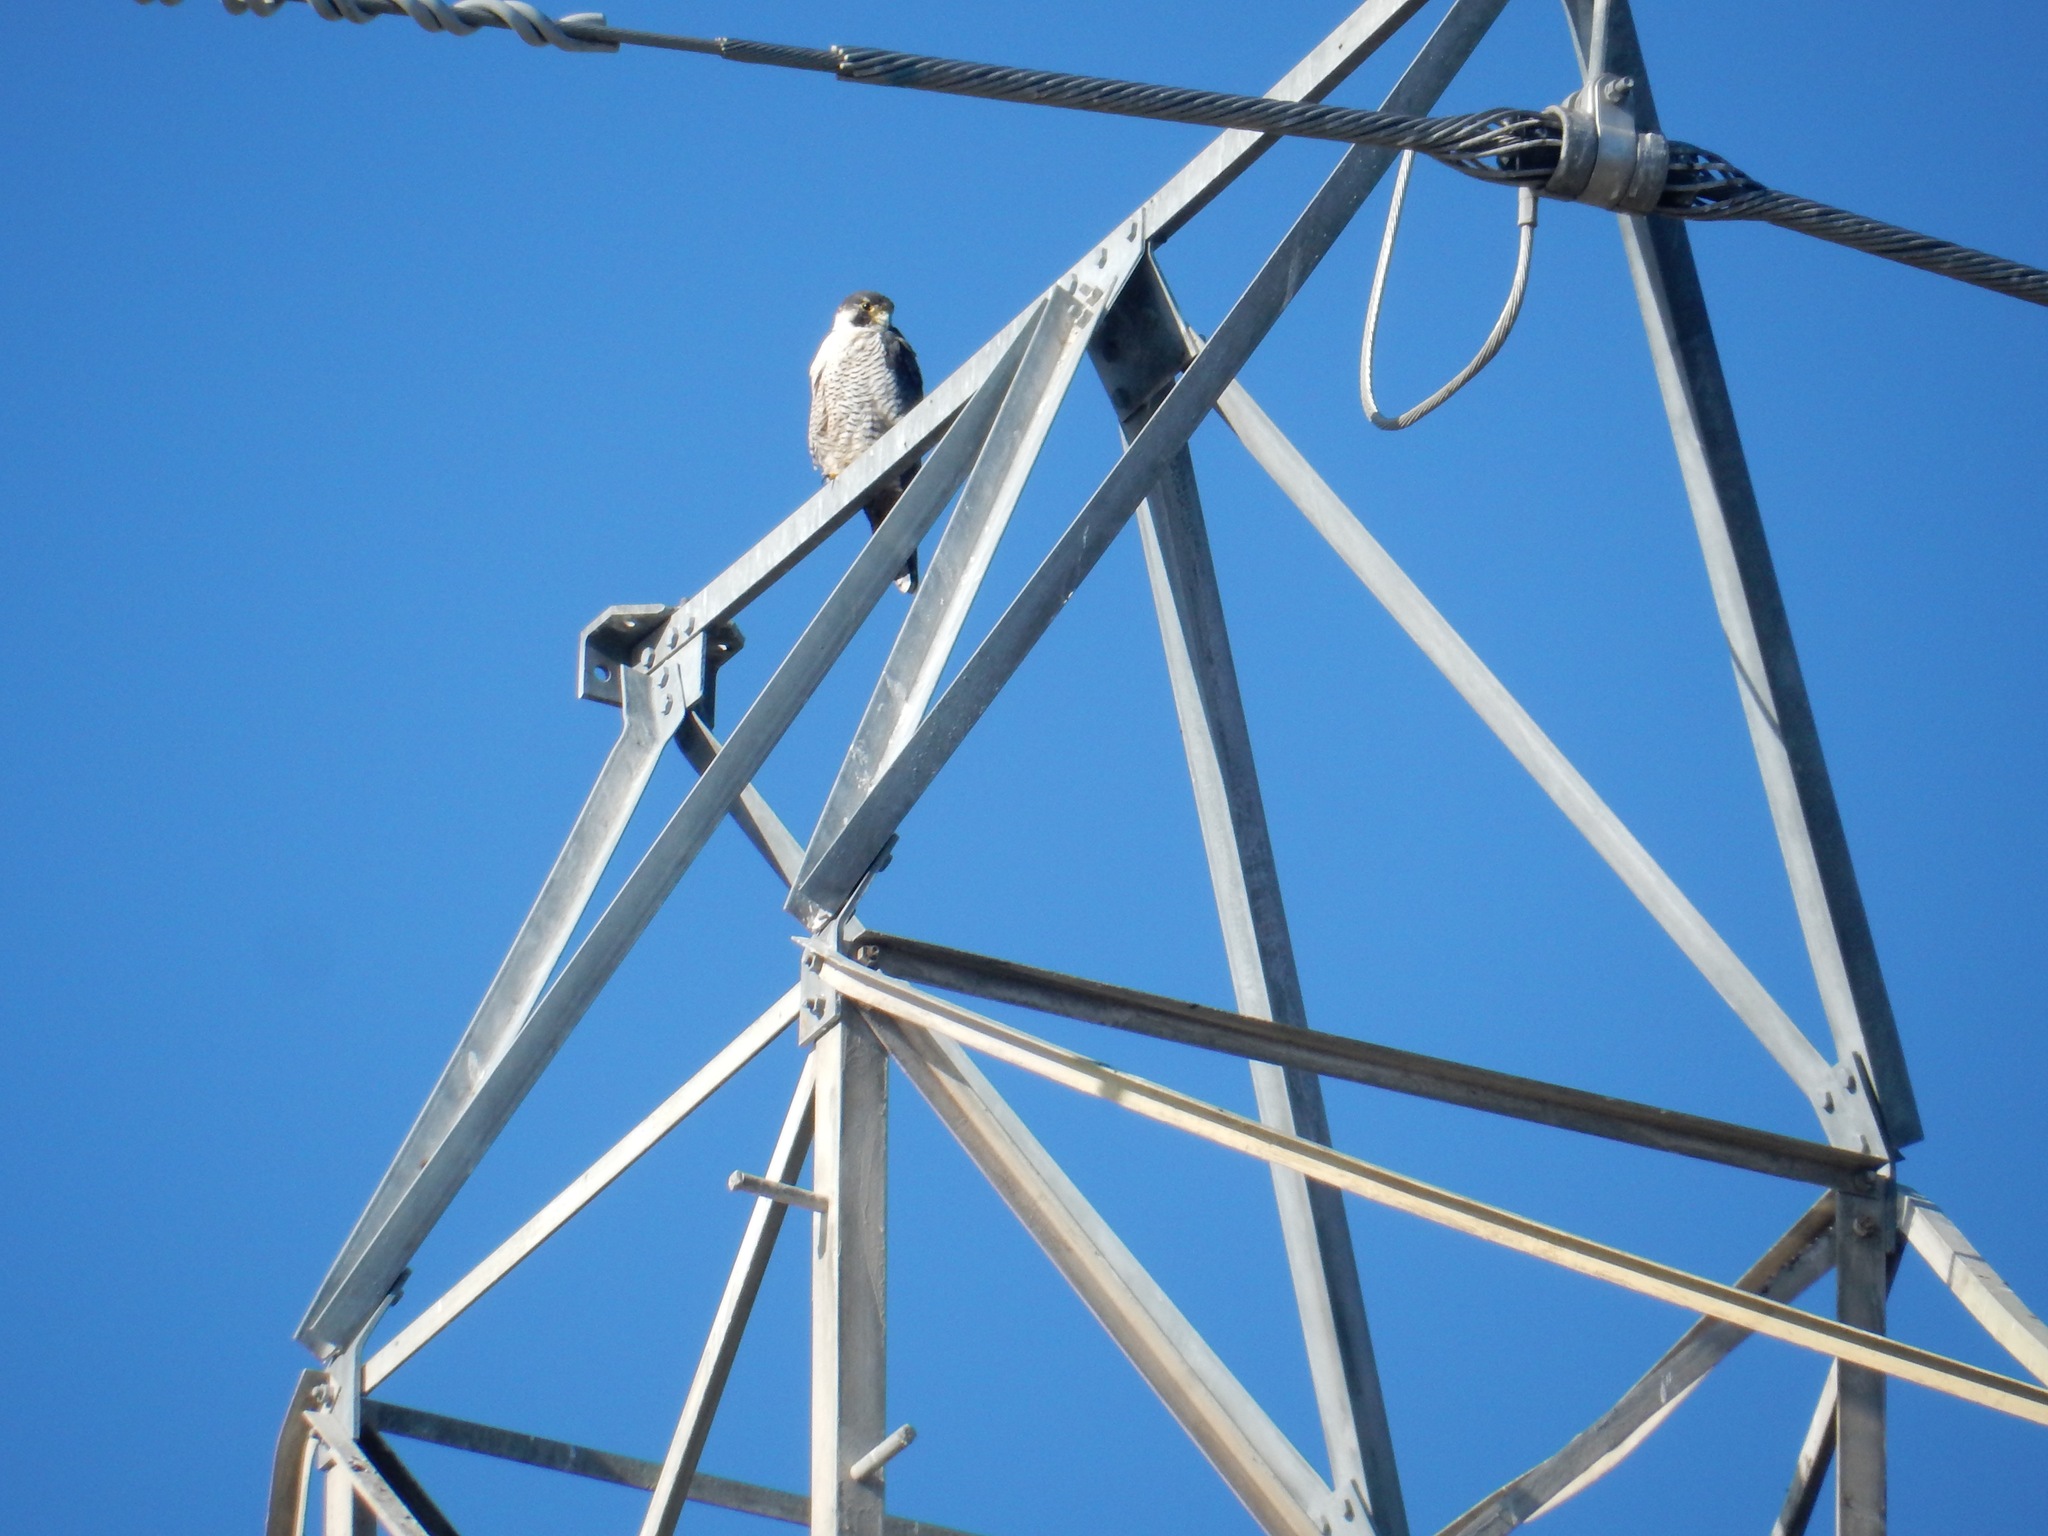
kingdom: Animalia
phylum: Chordata
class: Aves
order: Falconiformes
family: Falconidae
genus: Falco
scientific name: Falco peregrinus
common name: Peregrine falcon
